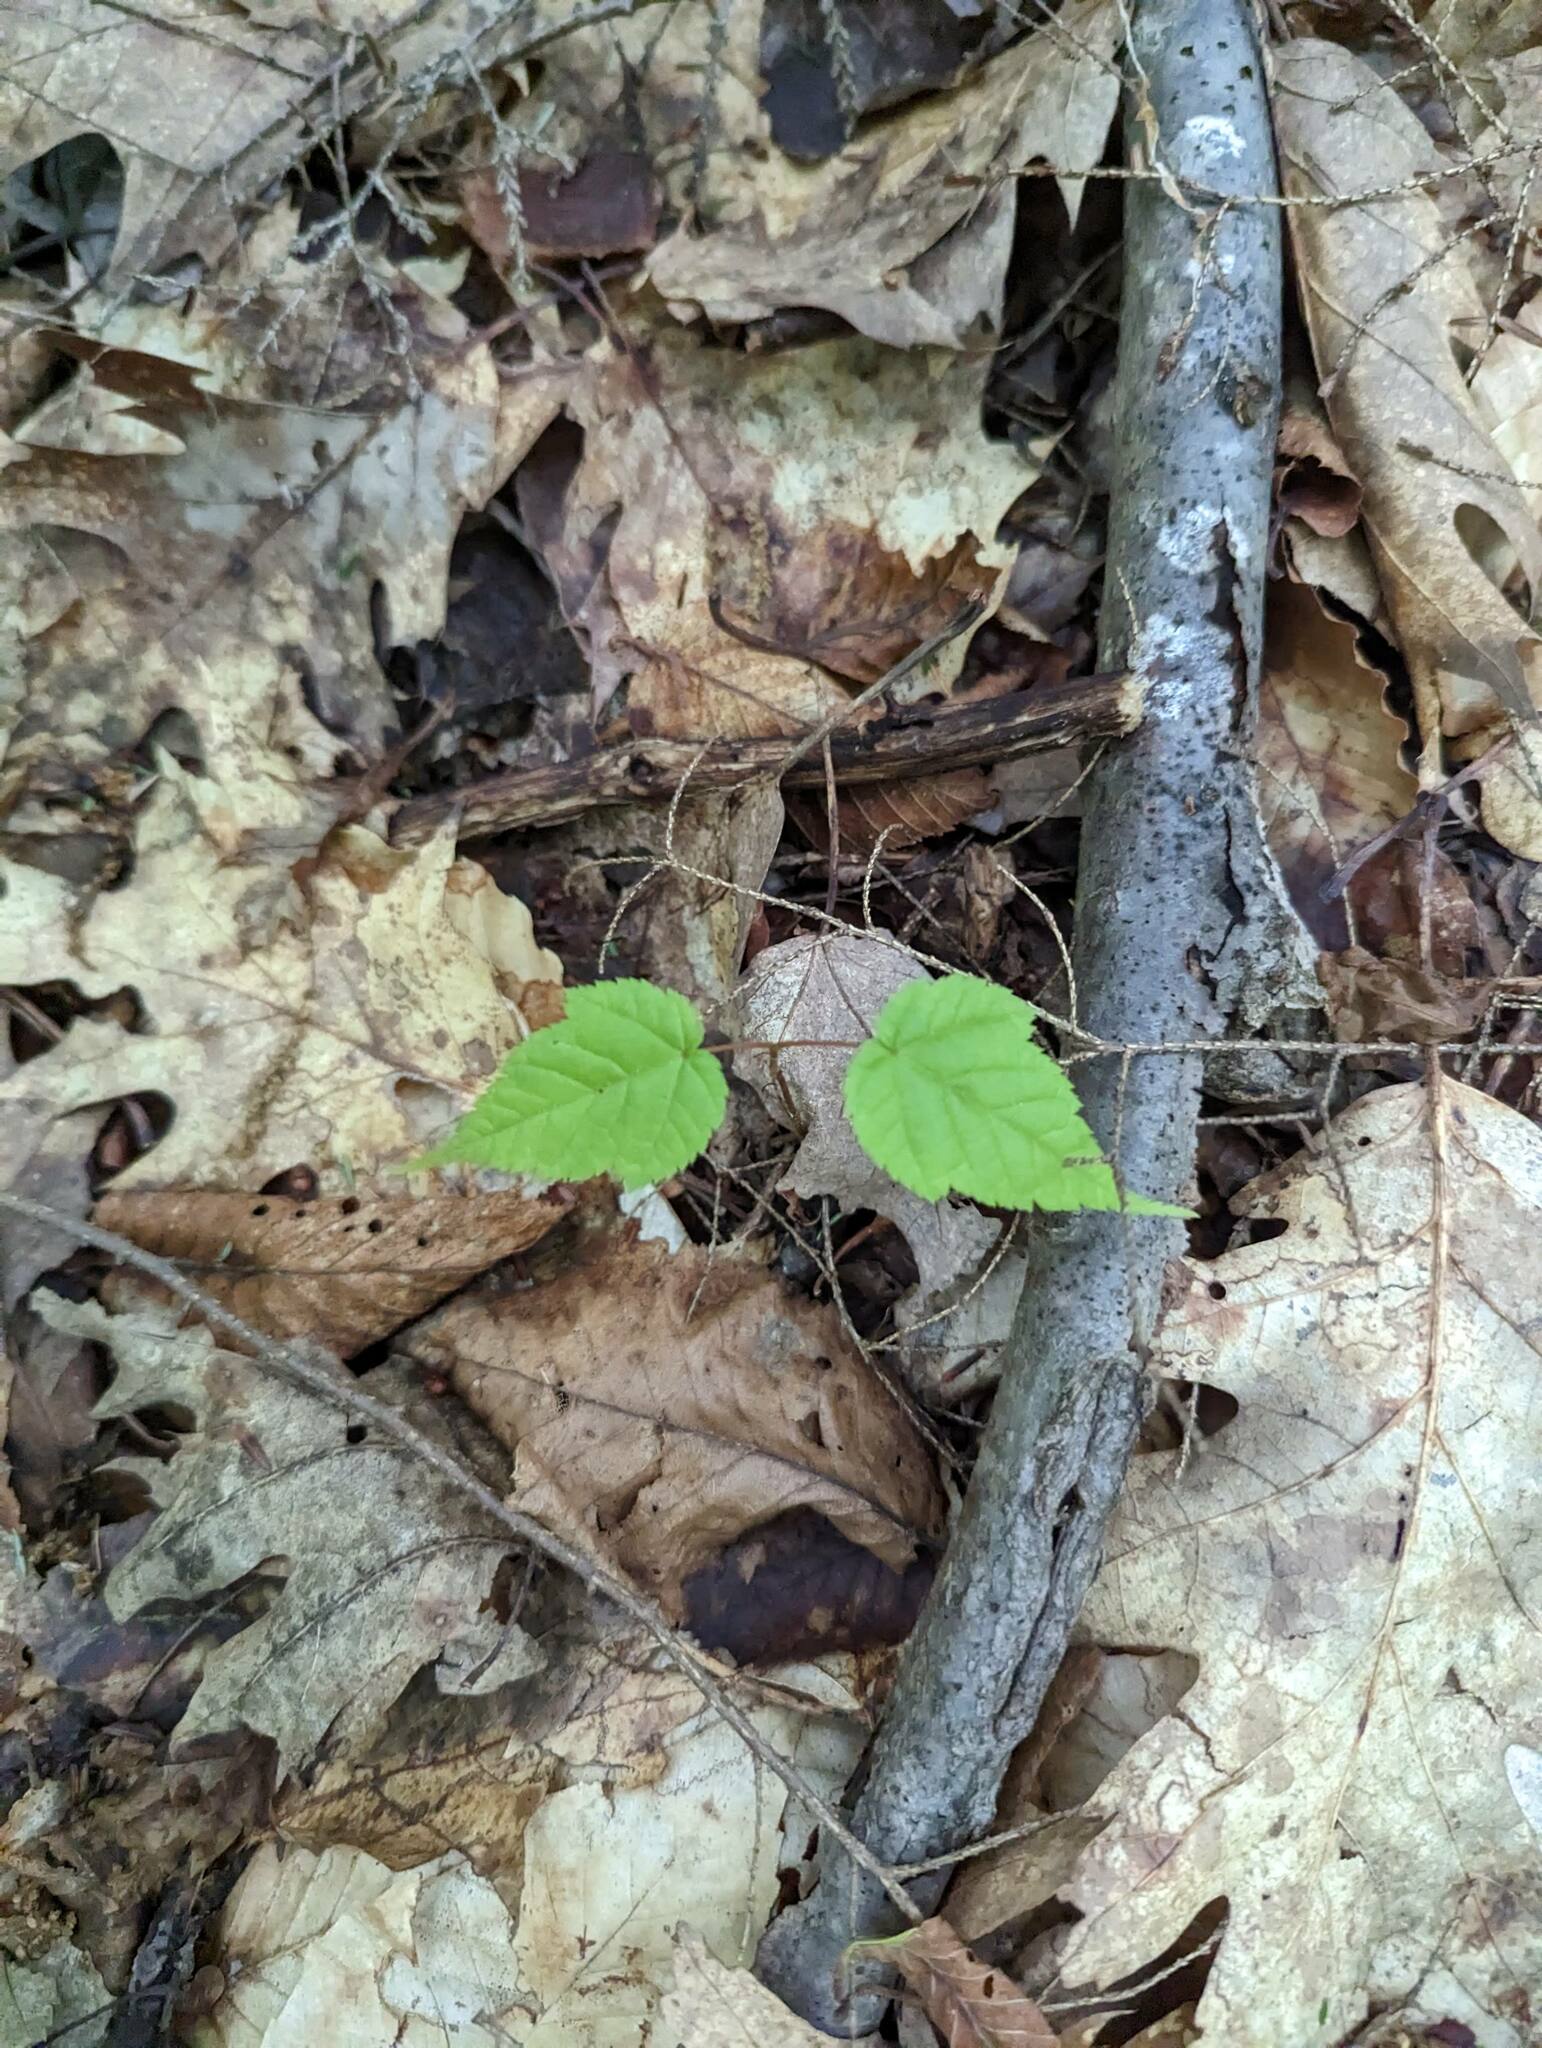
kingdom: Plantae
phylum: Tracheophyta
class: Magnoliopsida
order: Sapindales
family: Sapindaceae
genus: Acer
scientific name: Acer pensylvanicum
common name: Moosewood
